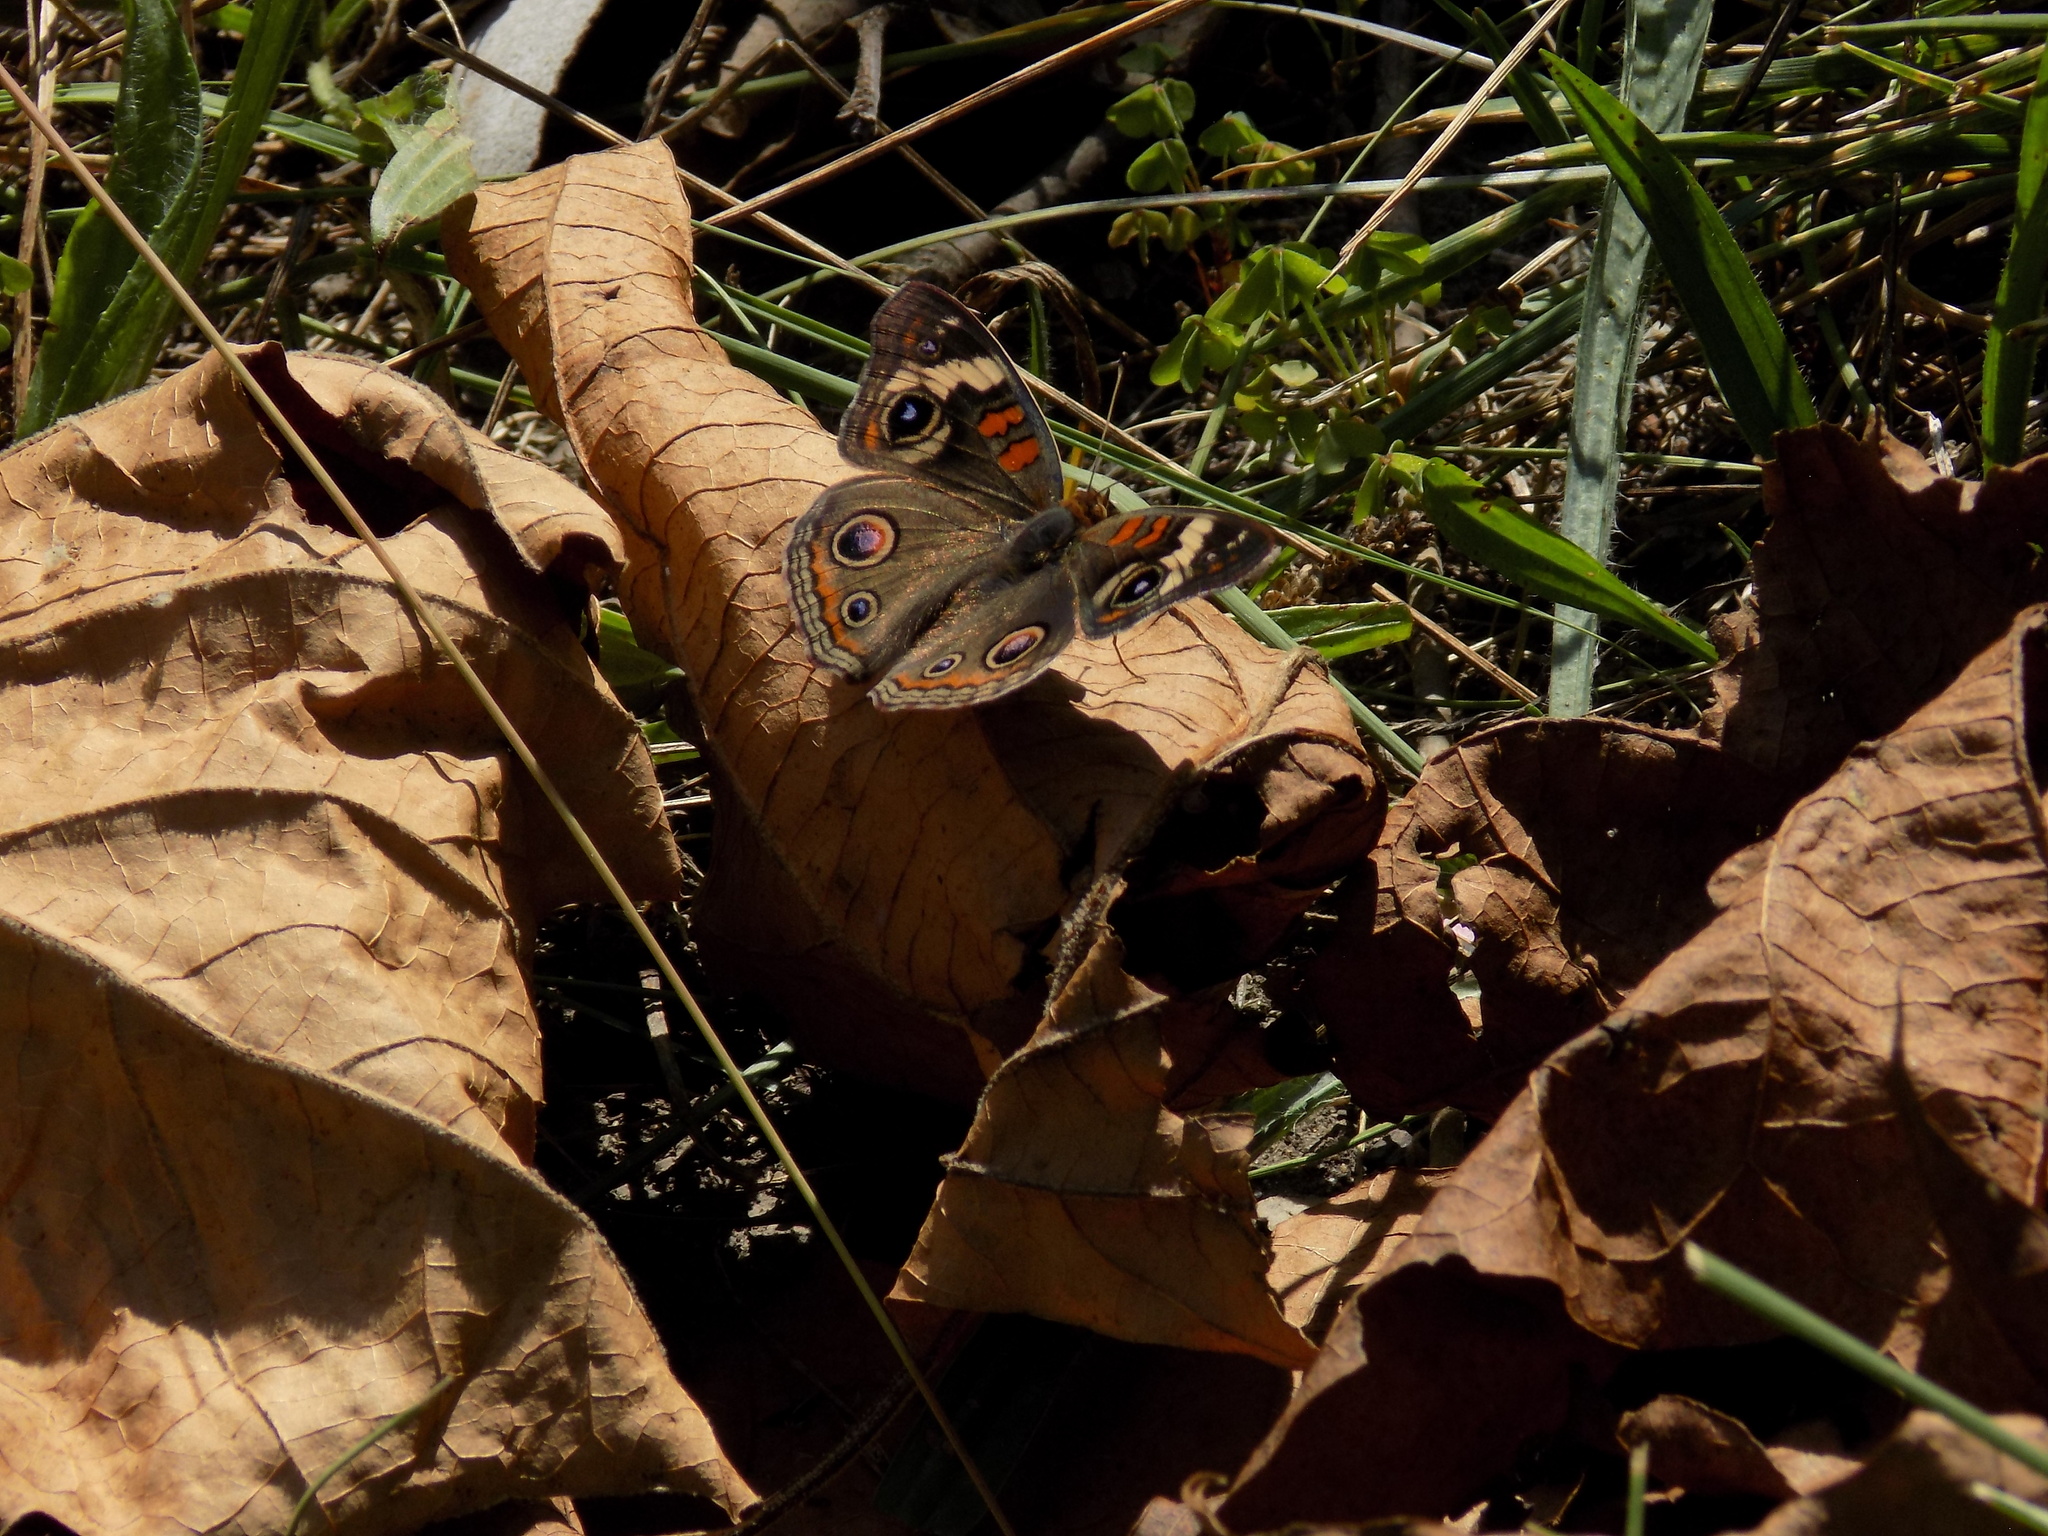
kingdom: Animalia
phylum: Arthropoda
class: Insecta
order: Lepidoptera
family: Nymphalidae
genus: Junonia
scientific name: Junonia coenia
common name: Common buckeye
